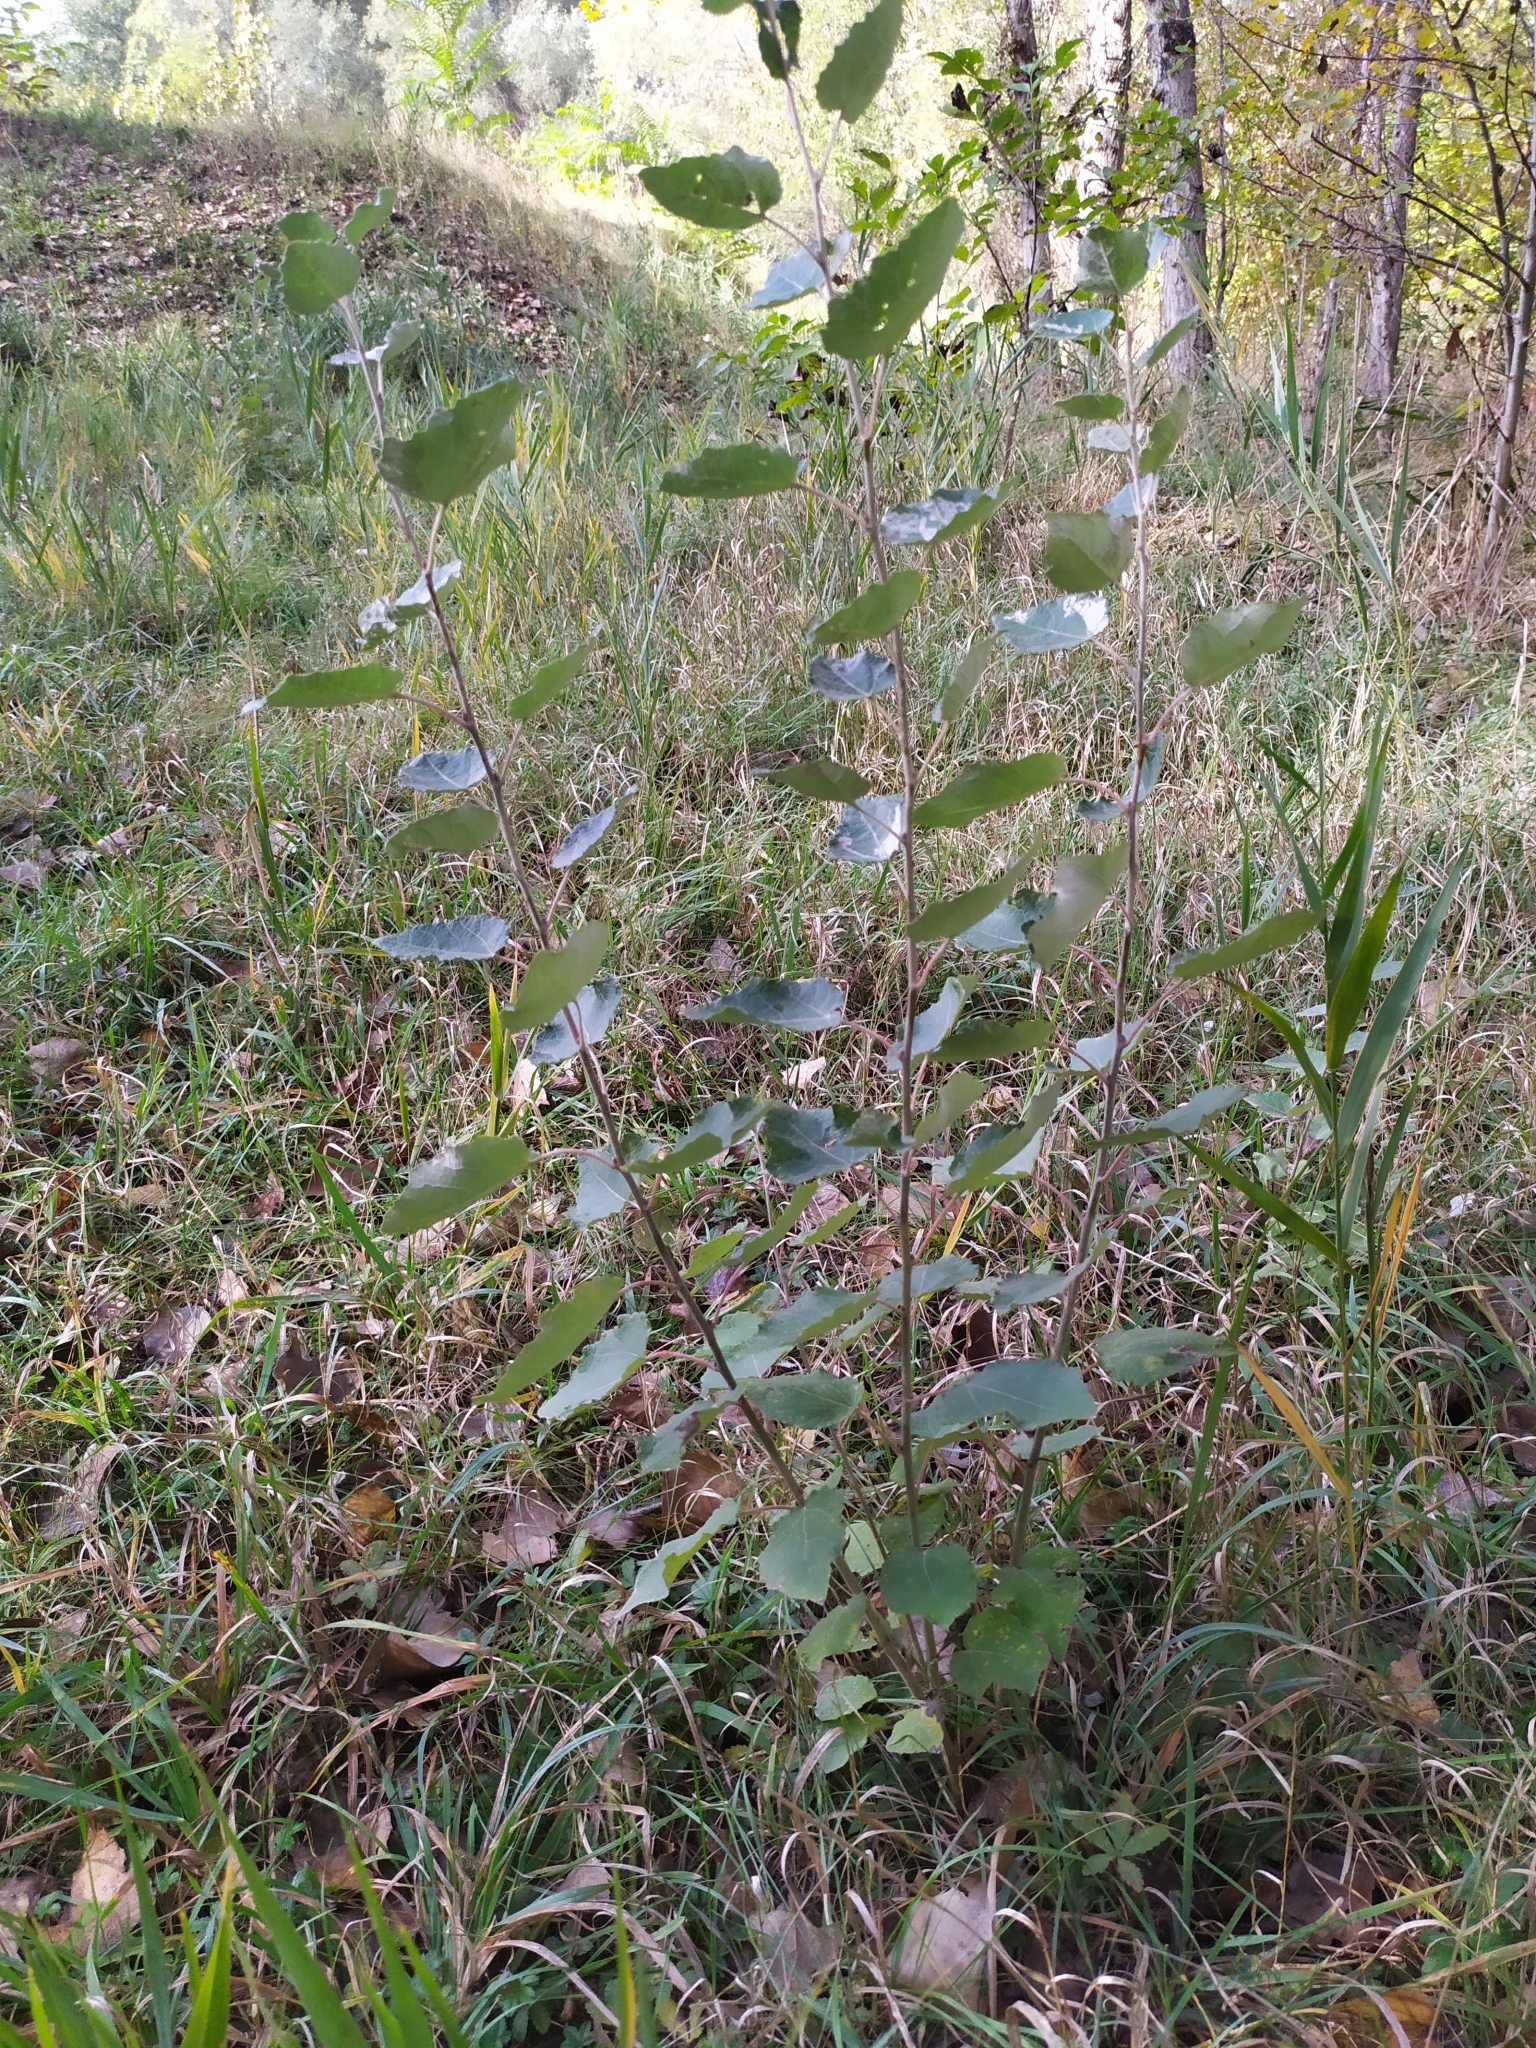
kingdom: Plantae
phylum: Tracheophyta
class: Magnoliopsida
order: Malpighiales
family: Salicaceae
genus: Populus
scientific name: Populus canescens
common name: Gray poplar
